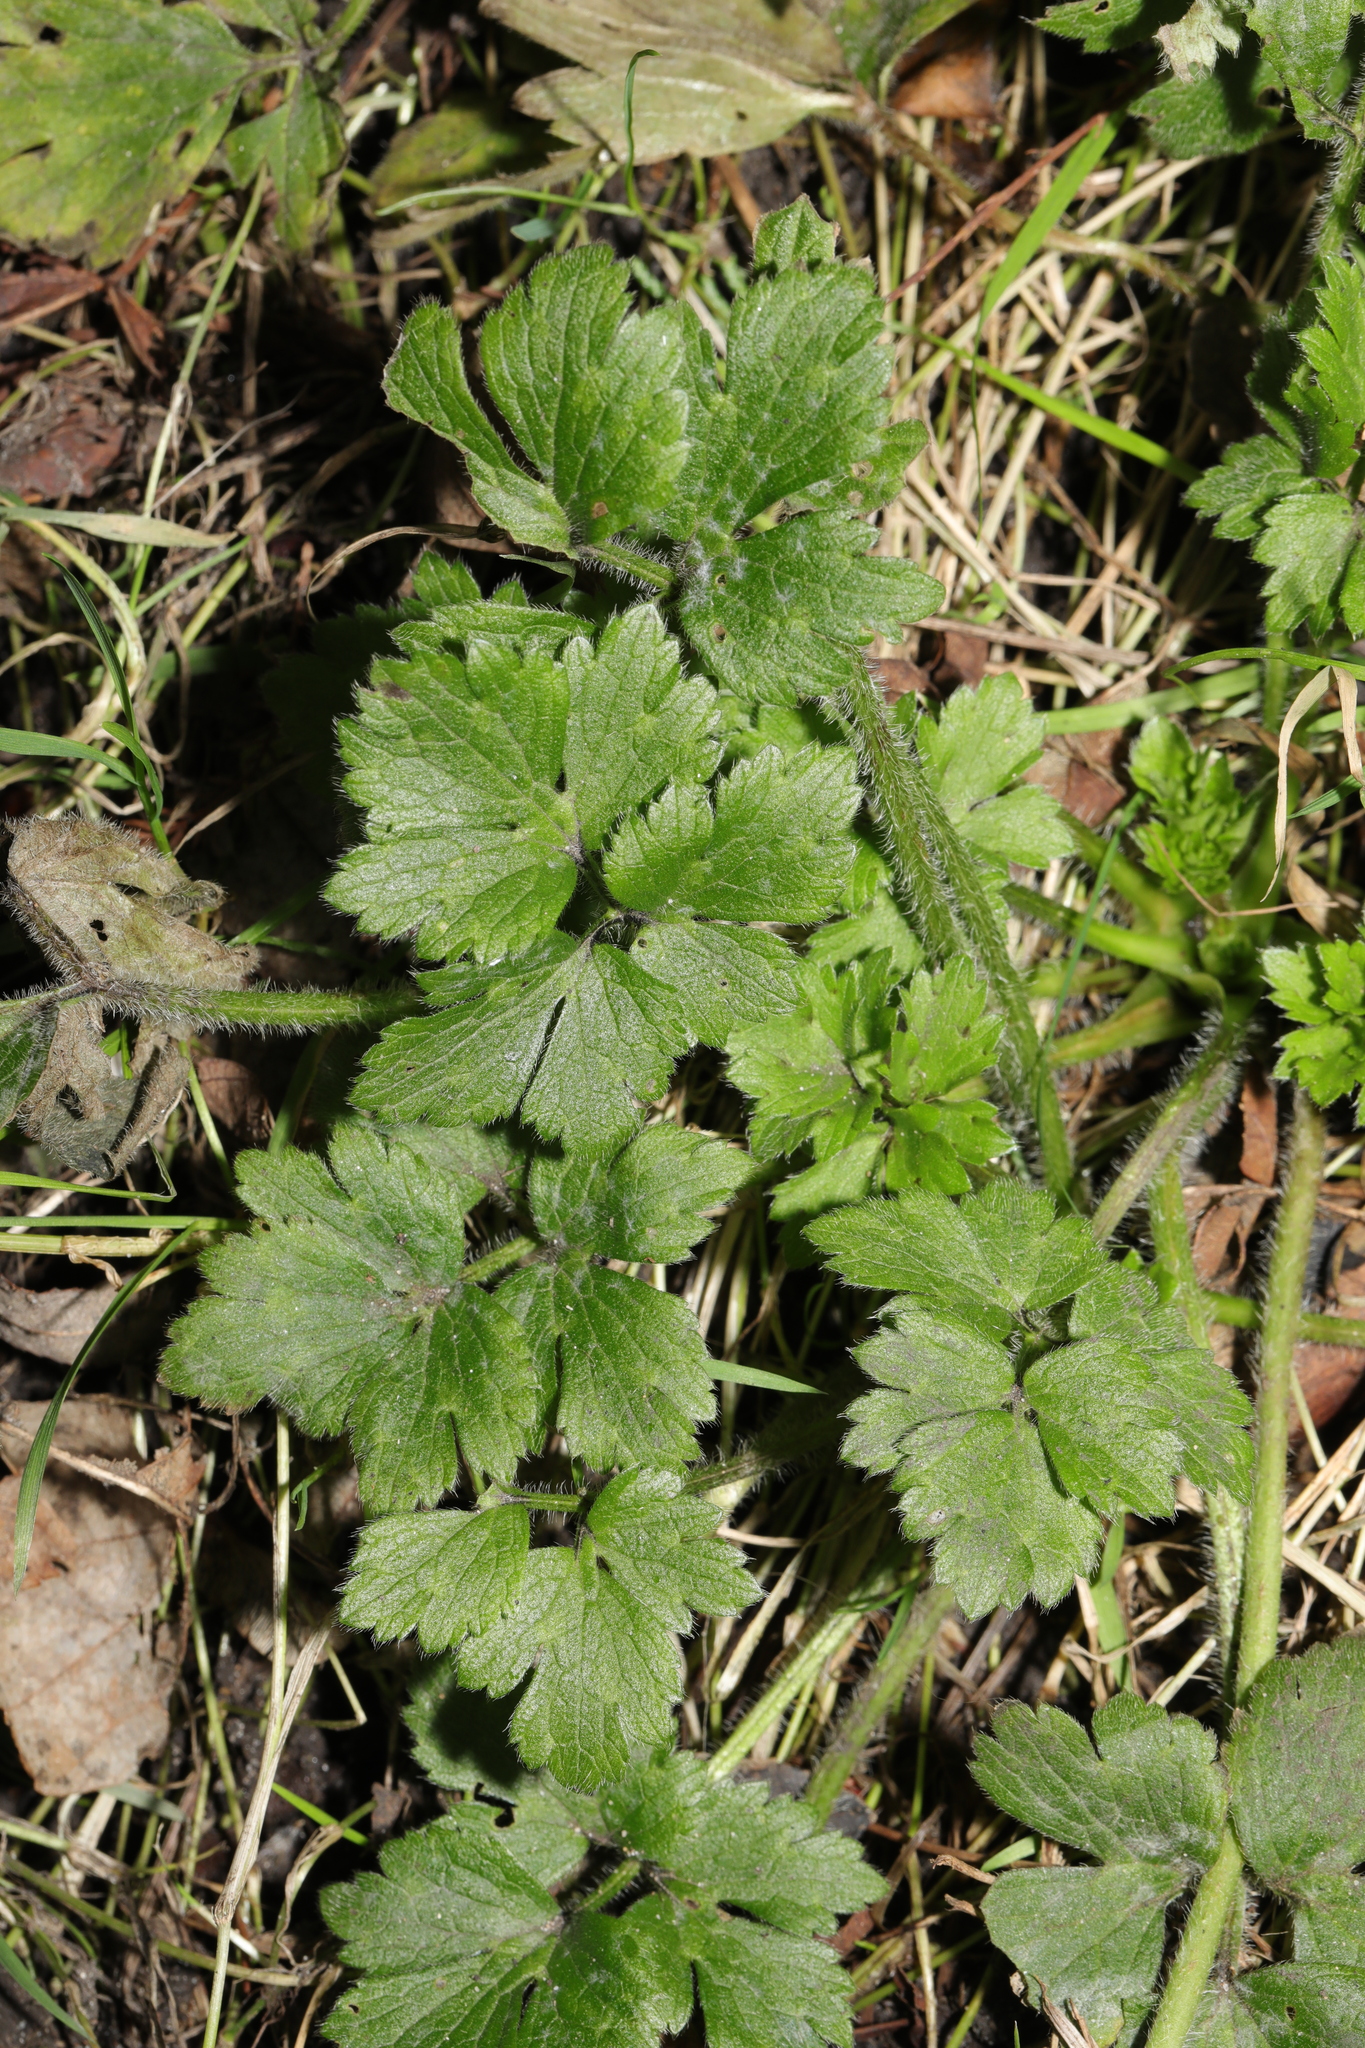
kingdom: Plantae
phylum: Tracheophyta
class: Magnoliopsida
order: Ranunculales
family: Ranunculaceae
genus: Ranunculus
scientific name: Ranunculus repens
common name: Creeping buttercup
